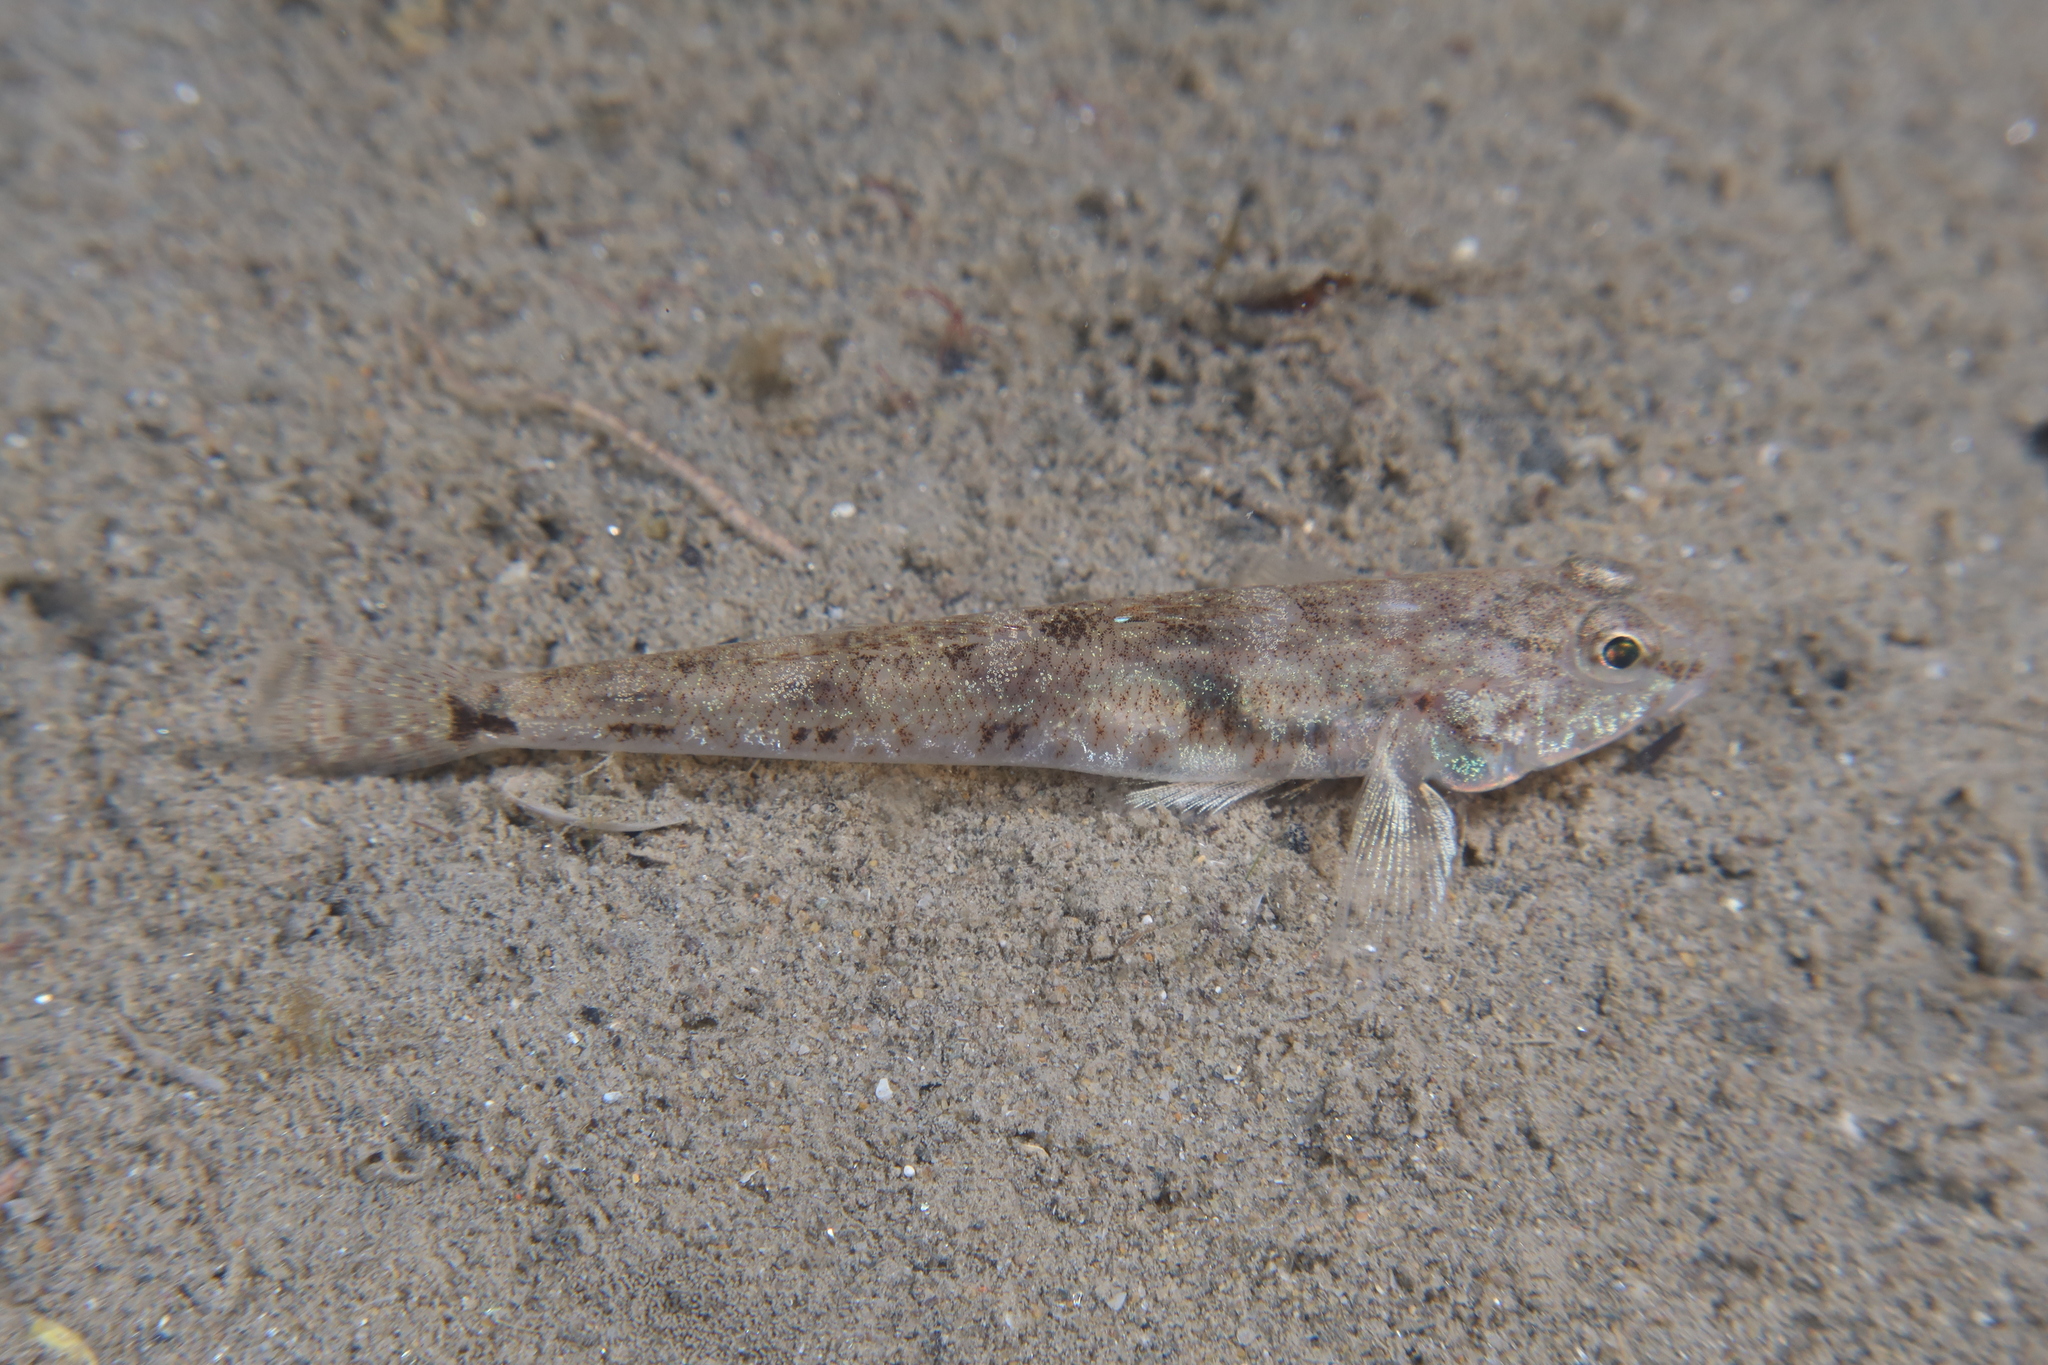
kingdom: Animalia
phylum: Chordata
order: Perciformes
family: Gobiidae
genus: Pomatoschistus
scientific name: Pomatoschistus minutus
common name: Sand goby
